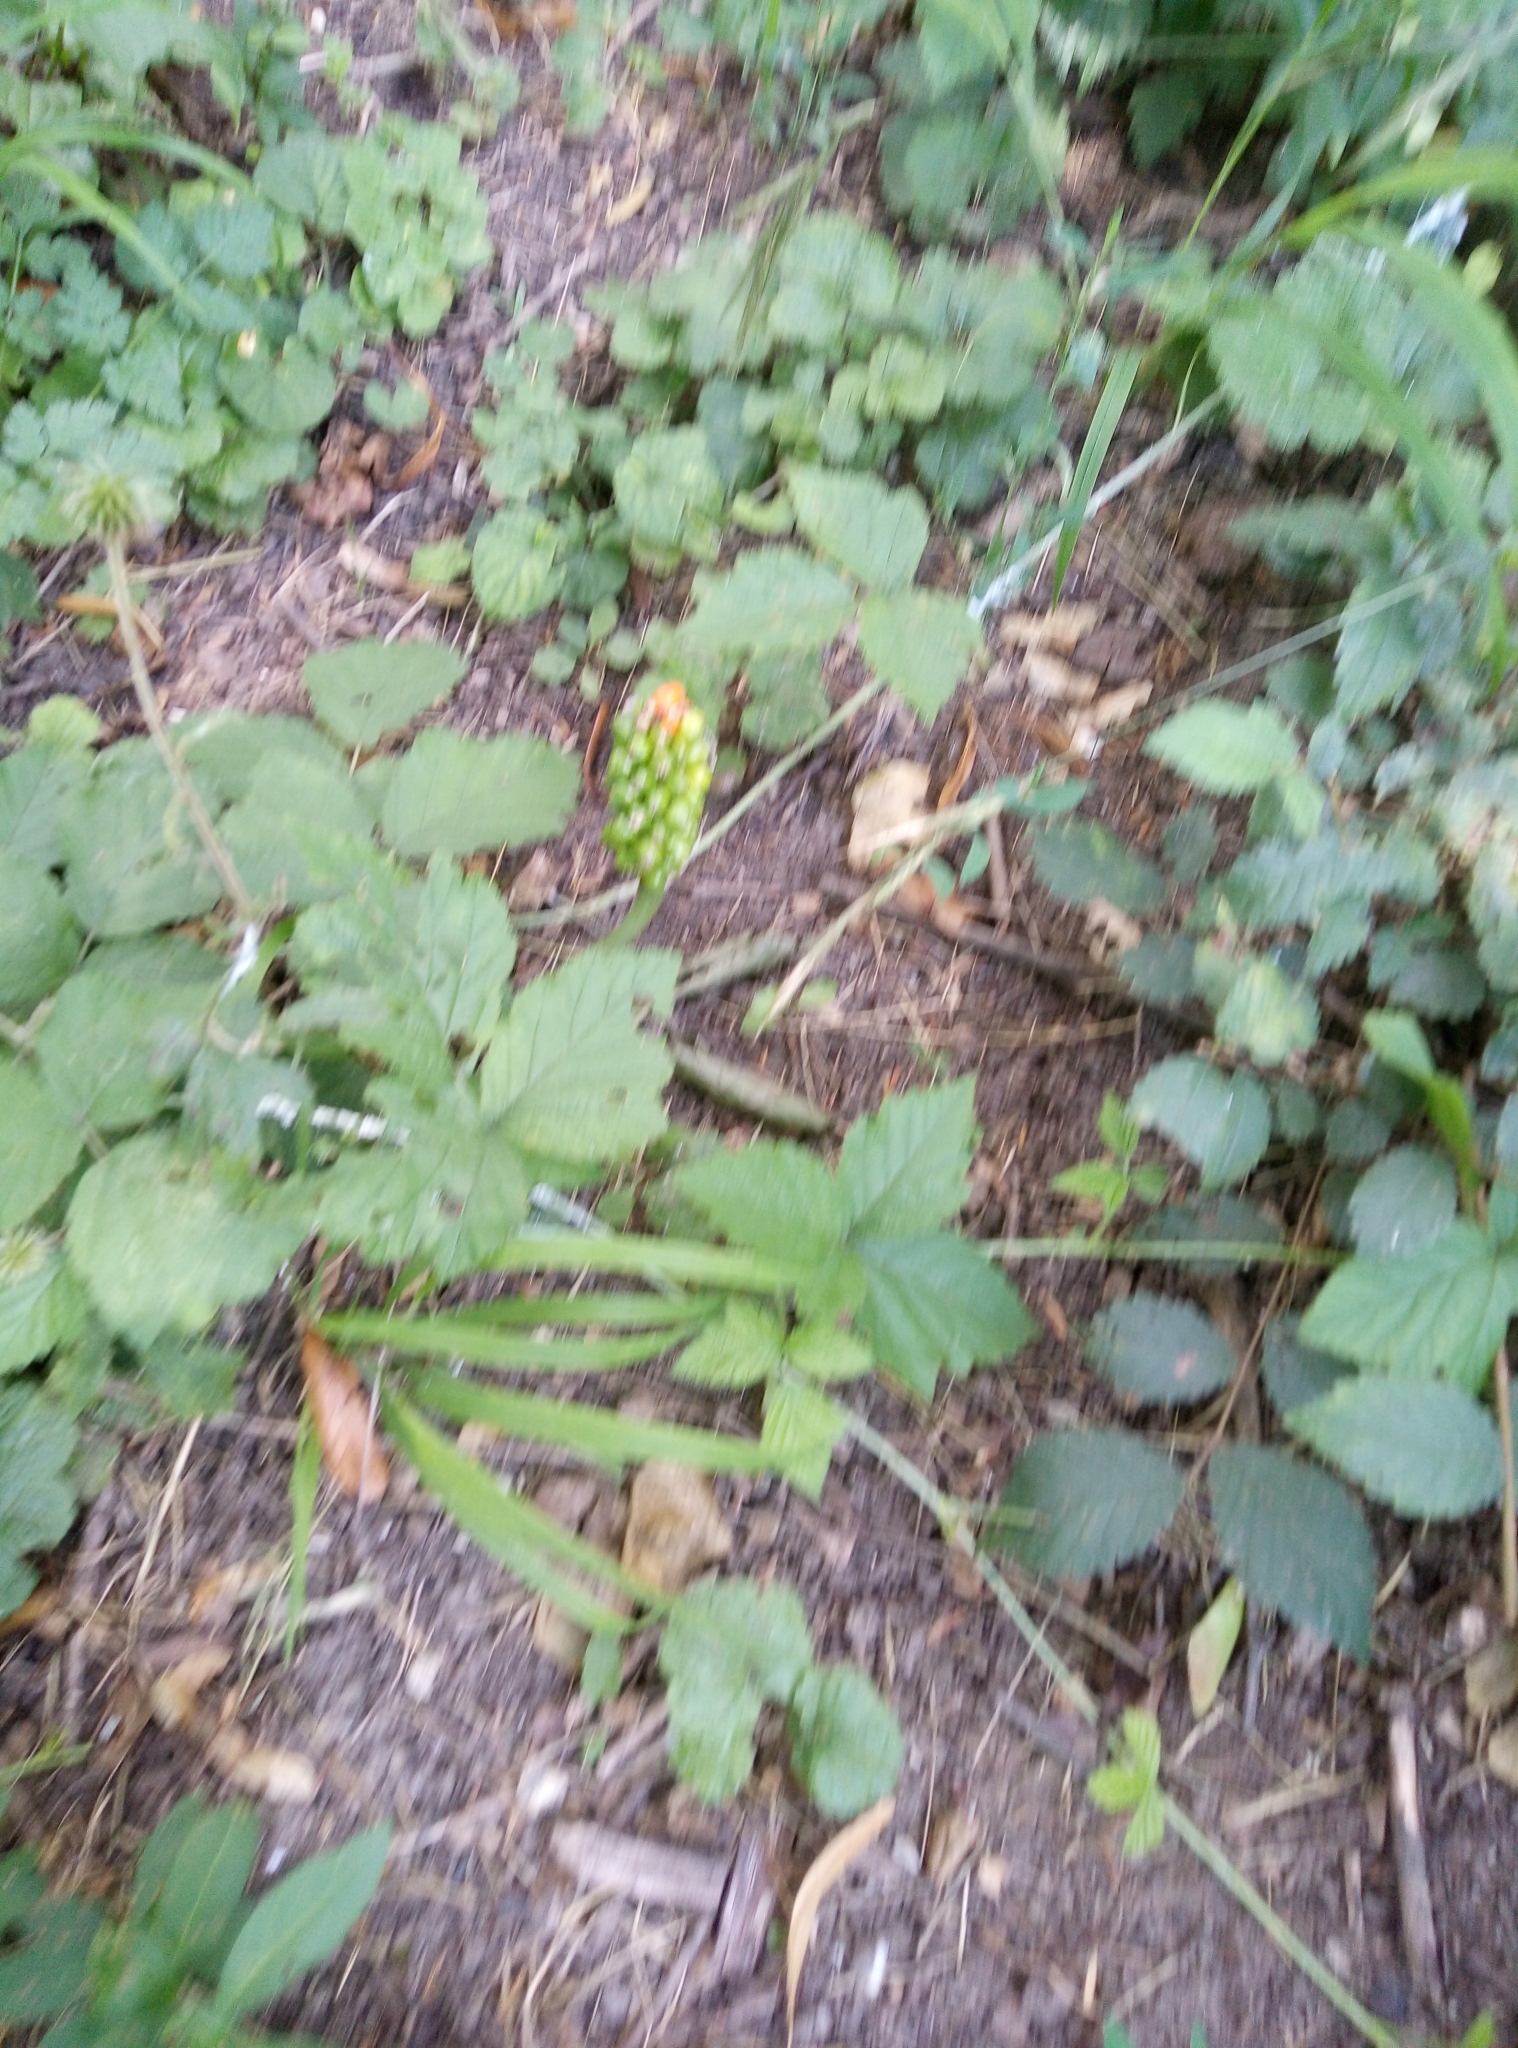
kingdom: Plantae
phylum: Tracheophyta
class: Liliopsida
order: Alismatales
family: Araceae
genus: Arum
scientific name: Arum cylindraceum
